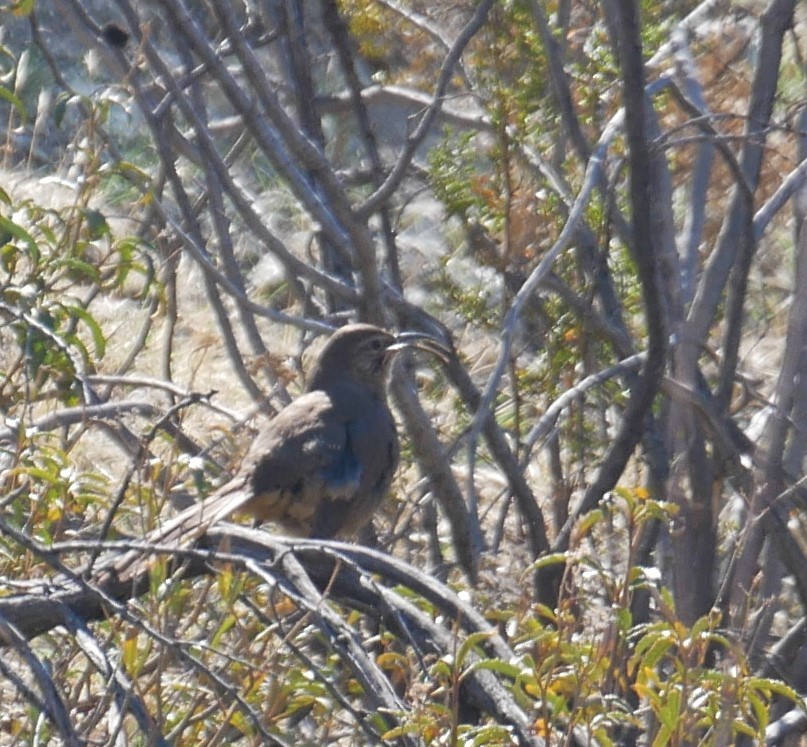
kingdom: Animalia
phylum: Chordata
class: Aves
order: Passeriformes
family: Mimidae
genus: Toxostoma
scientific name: Toxostoma redivivum
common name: California thrasher
